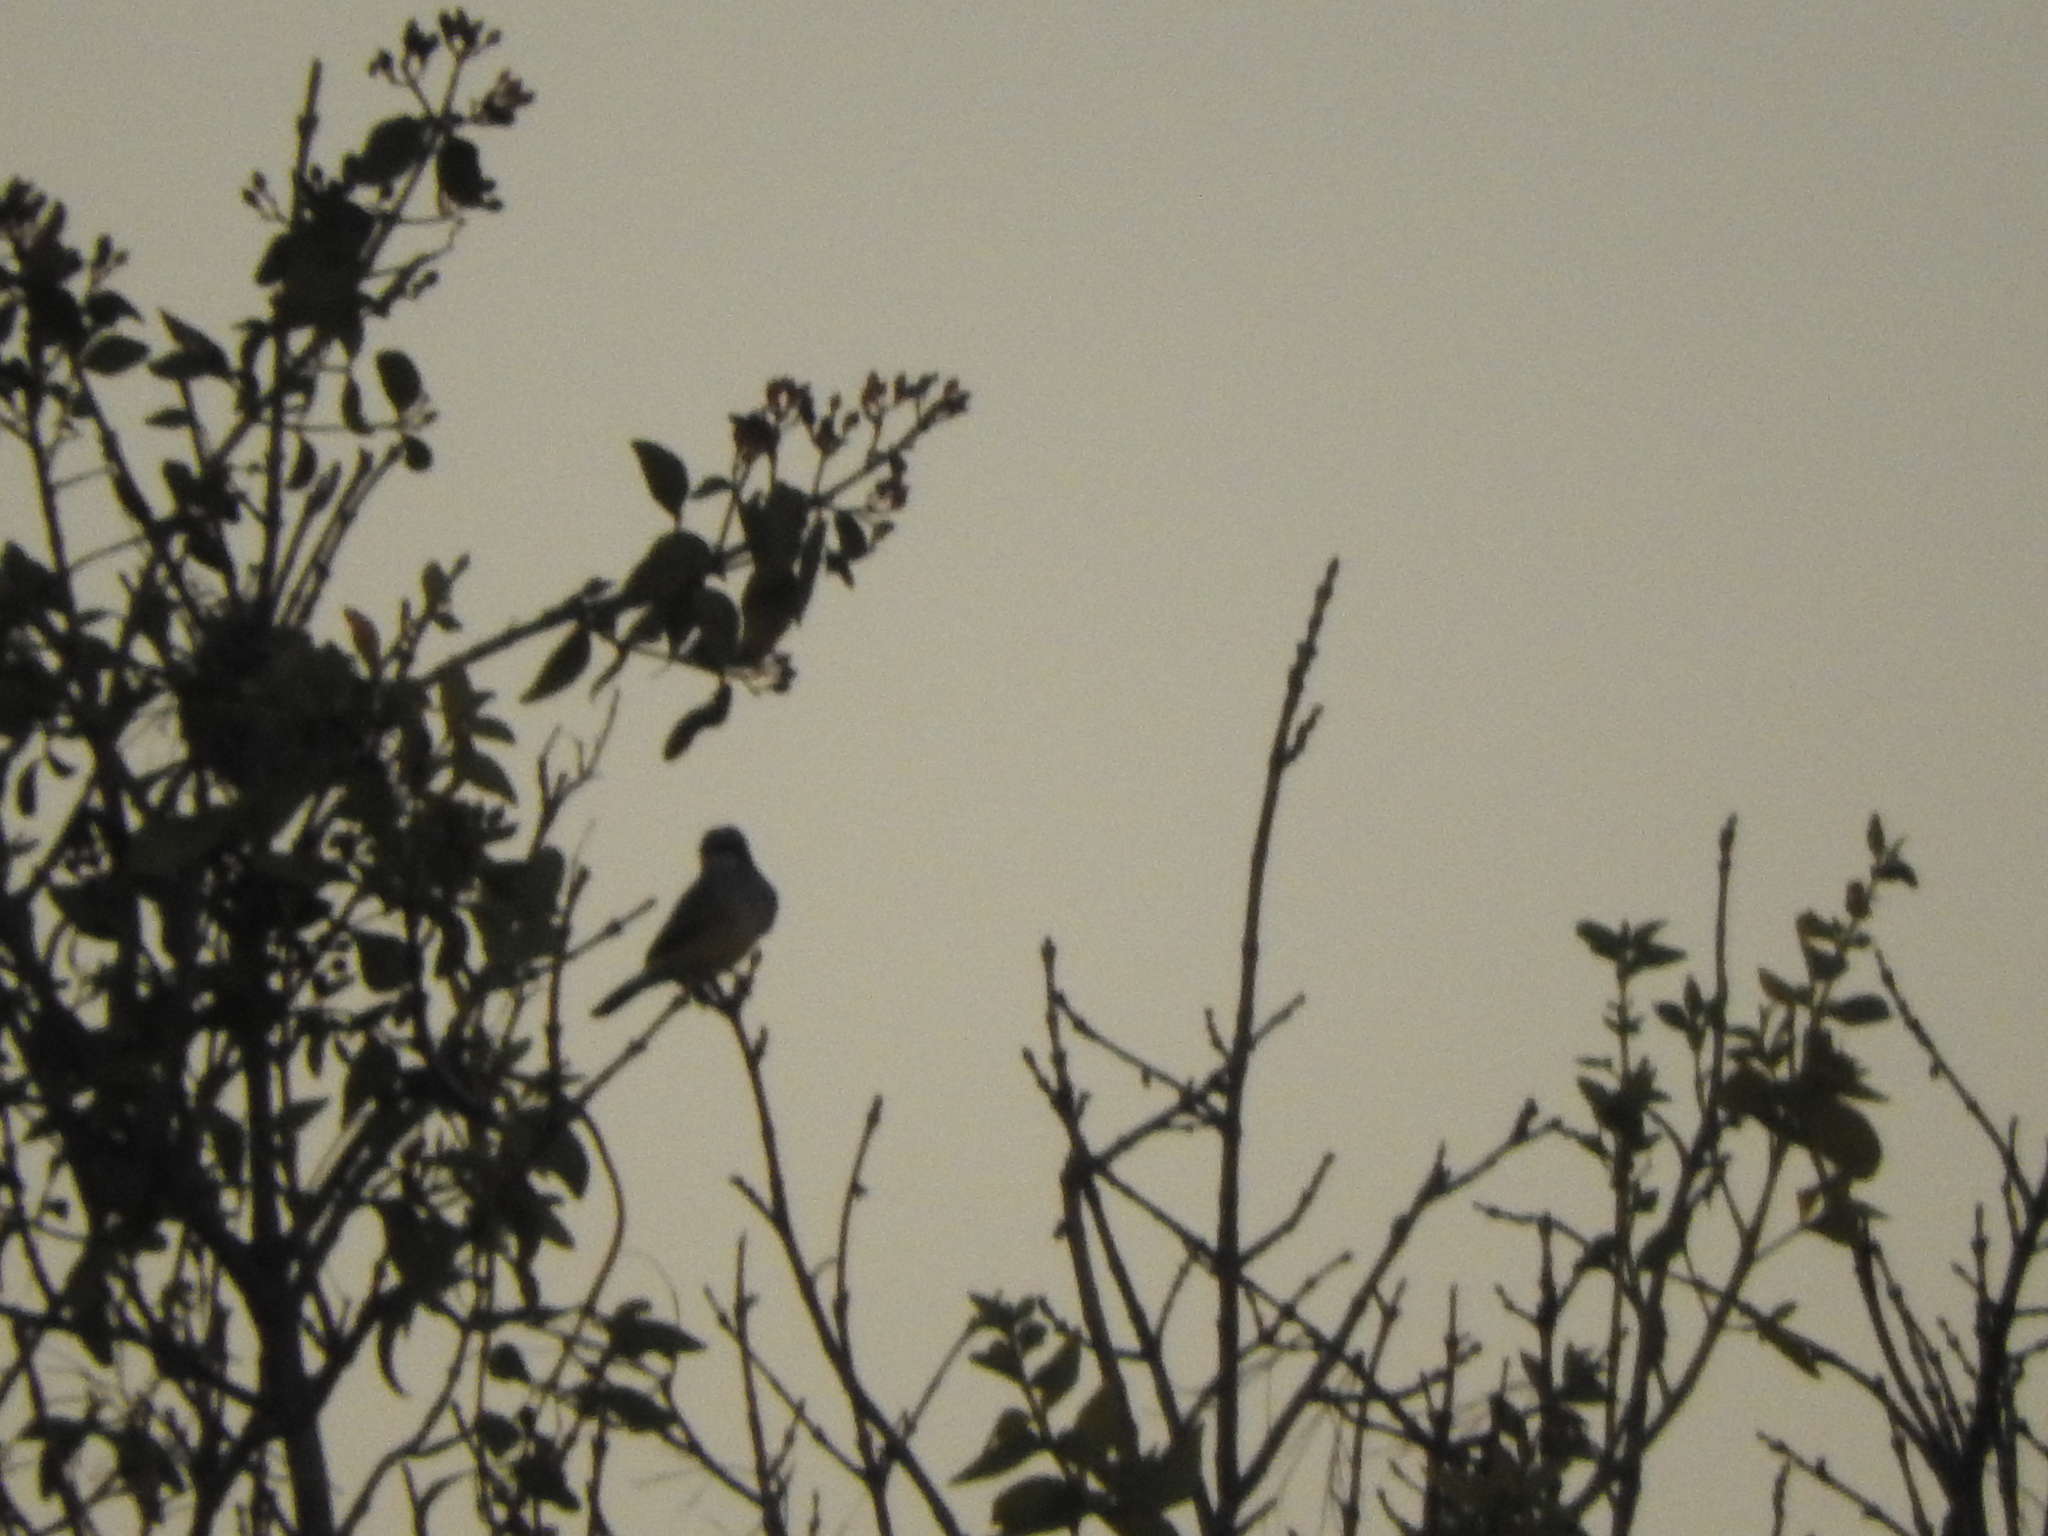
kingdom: Animalia
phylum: Chordata
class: Aves
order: Passeriformes
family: Tyrannidae
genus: Tyrannus
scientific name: Tyrannus vociferans
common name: Cassin's kingbird
